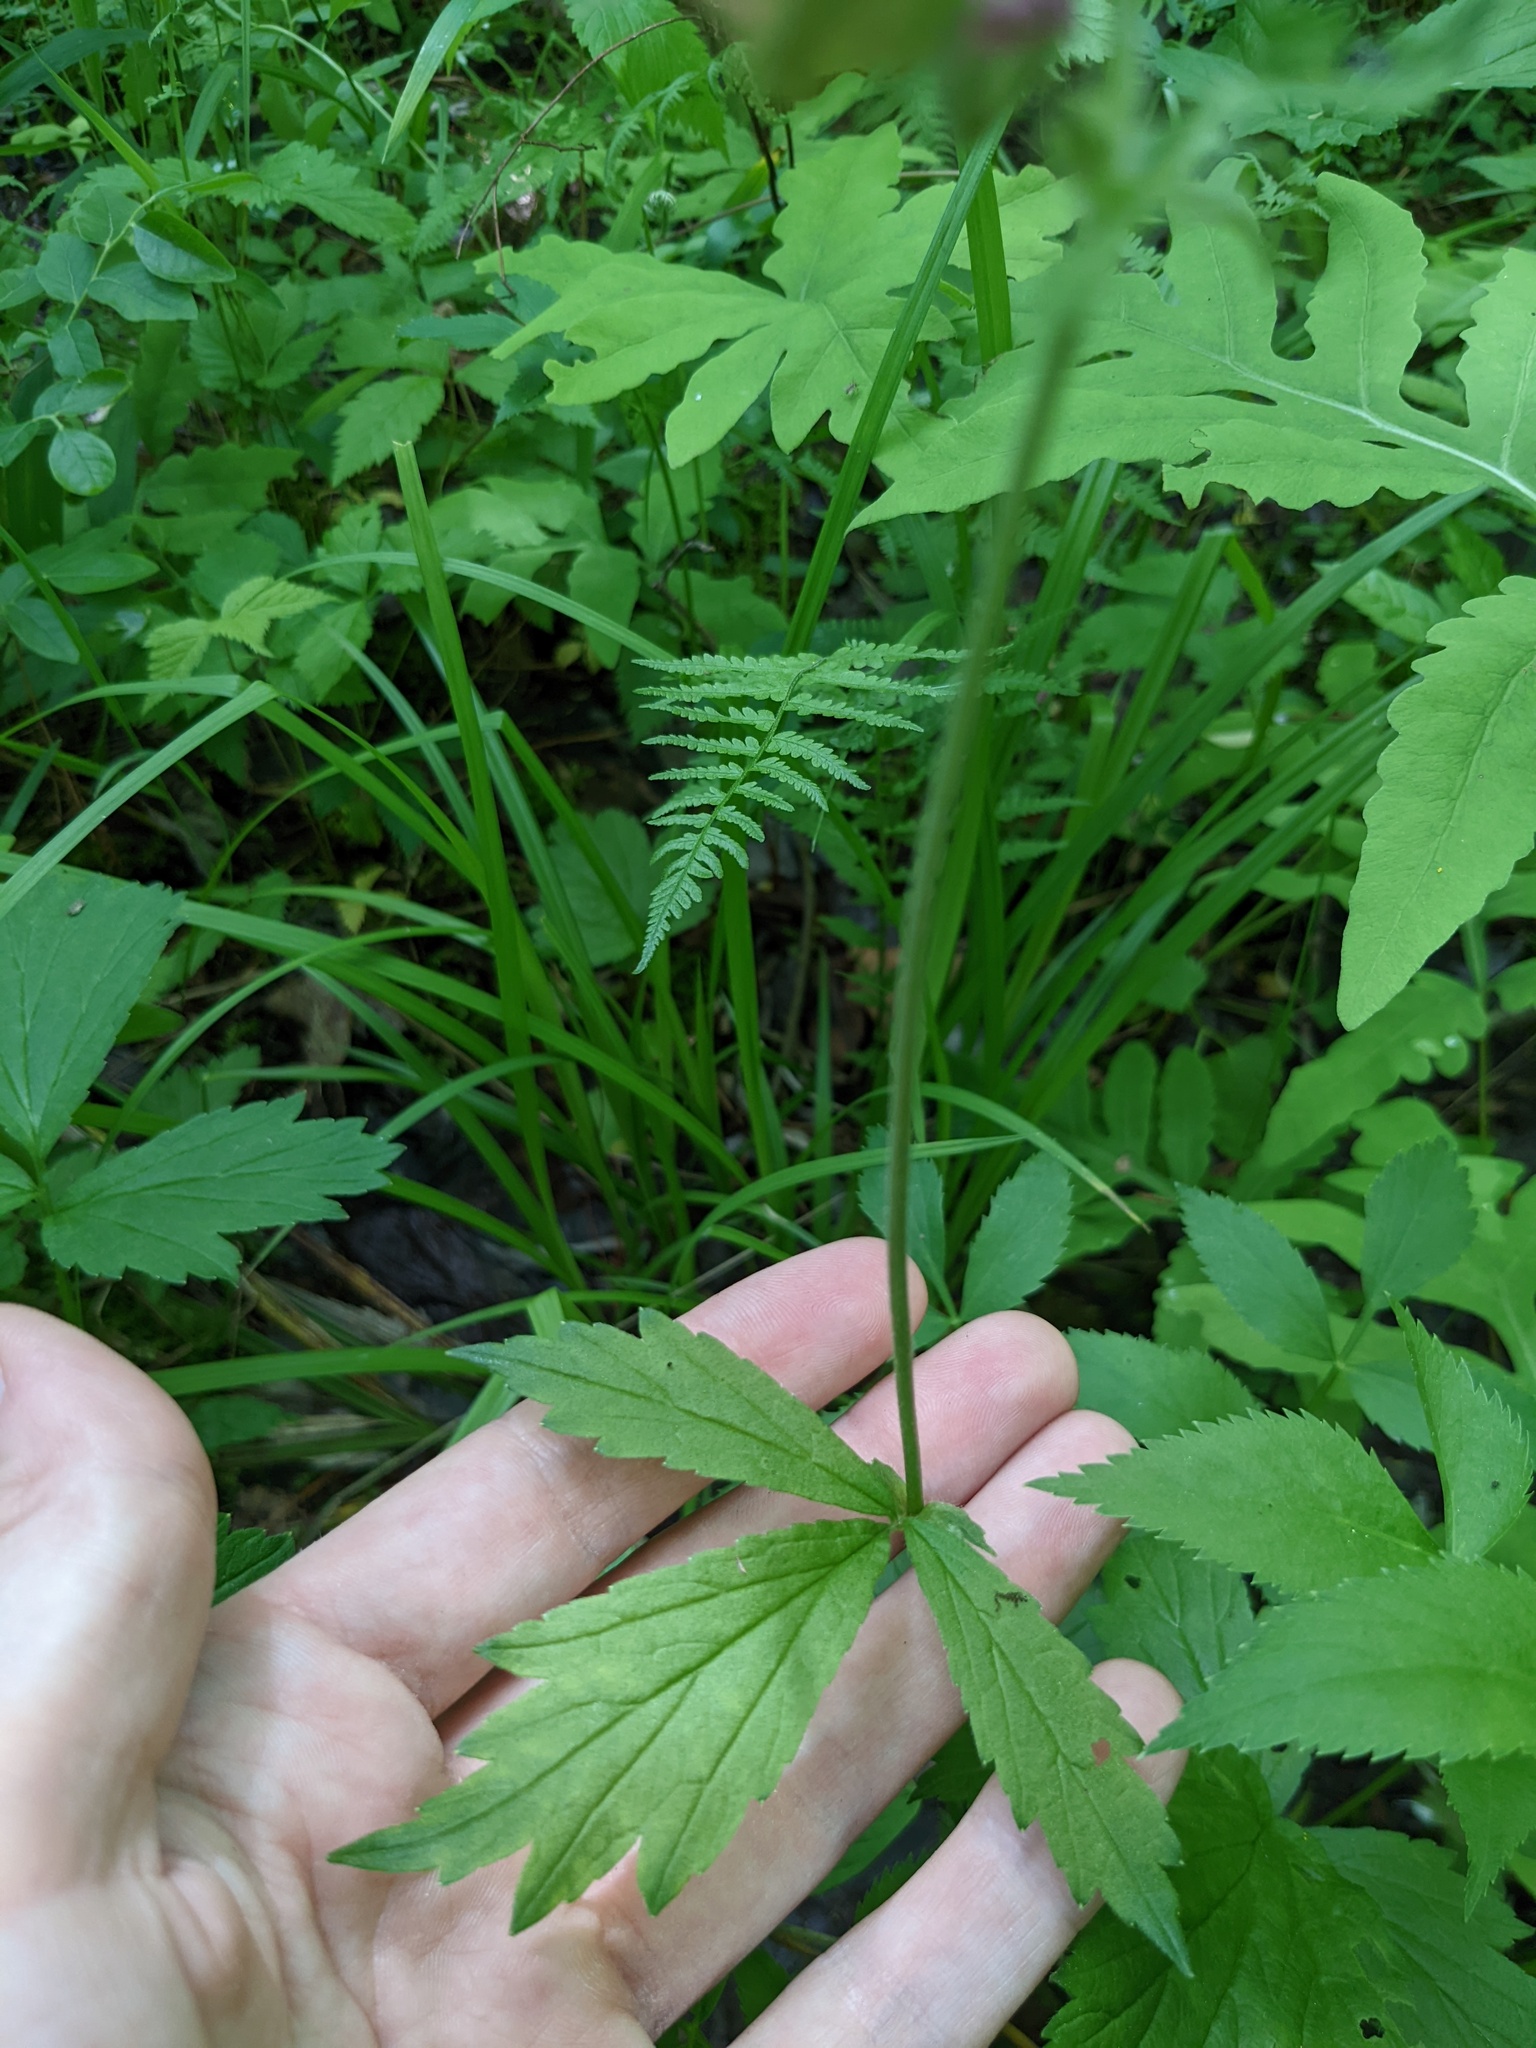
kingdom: Plantae
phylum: Tracheophyta
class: Magnoliopsida
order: Rosales
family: Rosaceae
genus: Geum
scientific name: Geum rivale
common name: Water avens
